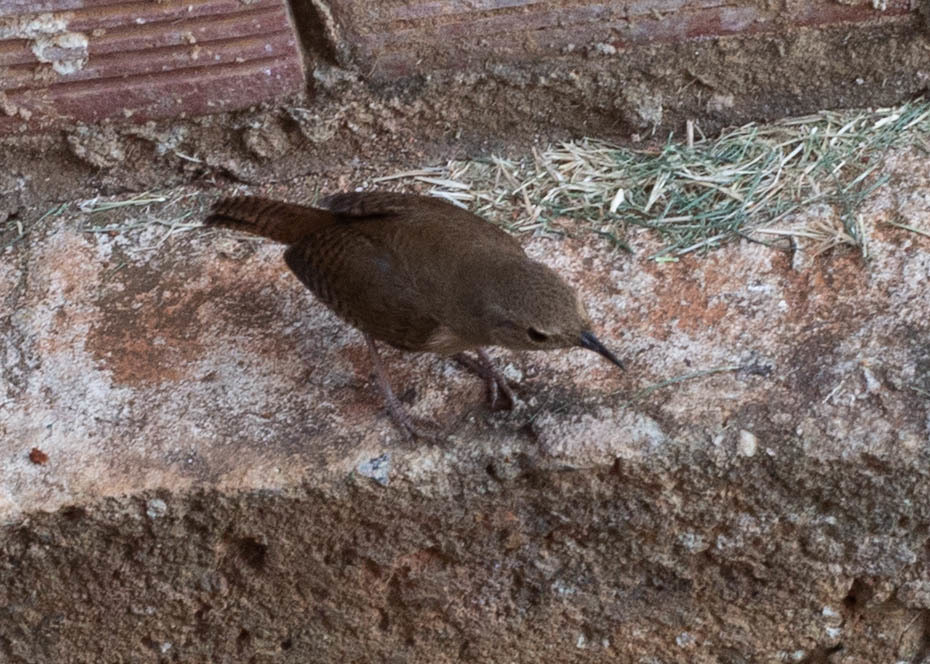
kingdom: Animalia
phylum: Chordata
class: Aves
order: Passeriformes
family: Troglodytidae
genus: Troglodytes
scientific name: Troglodytes aedon
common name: House wren
